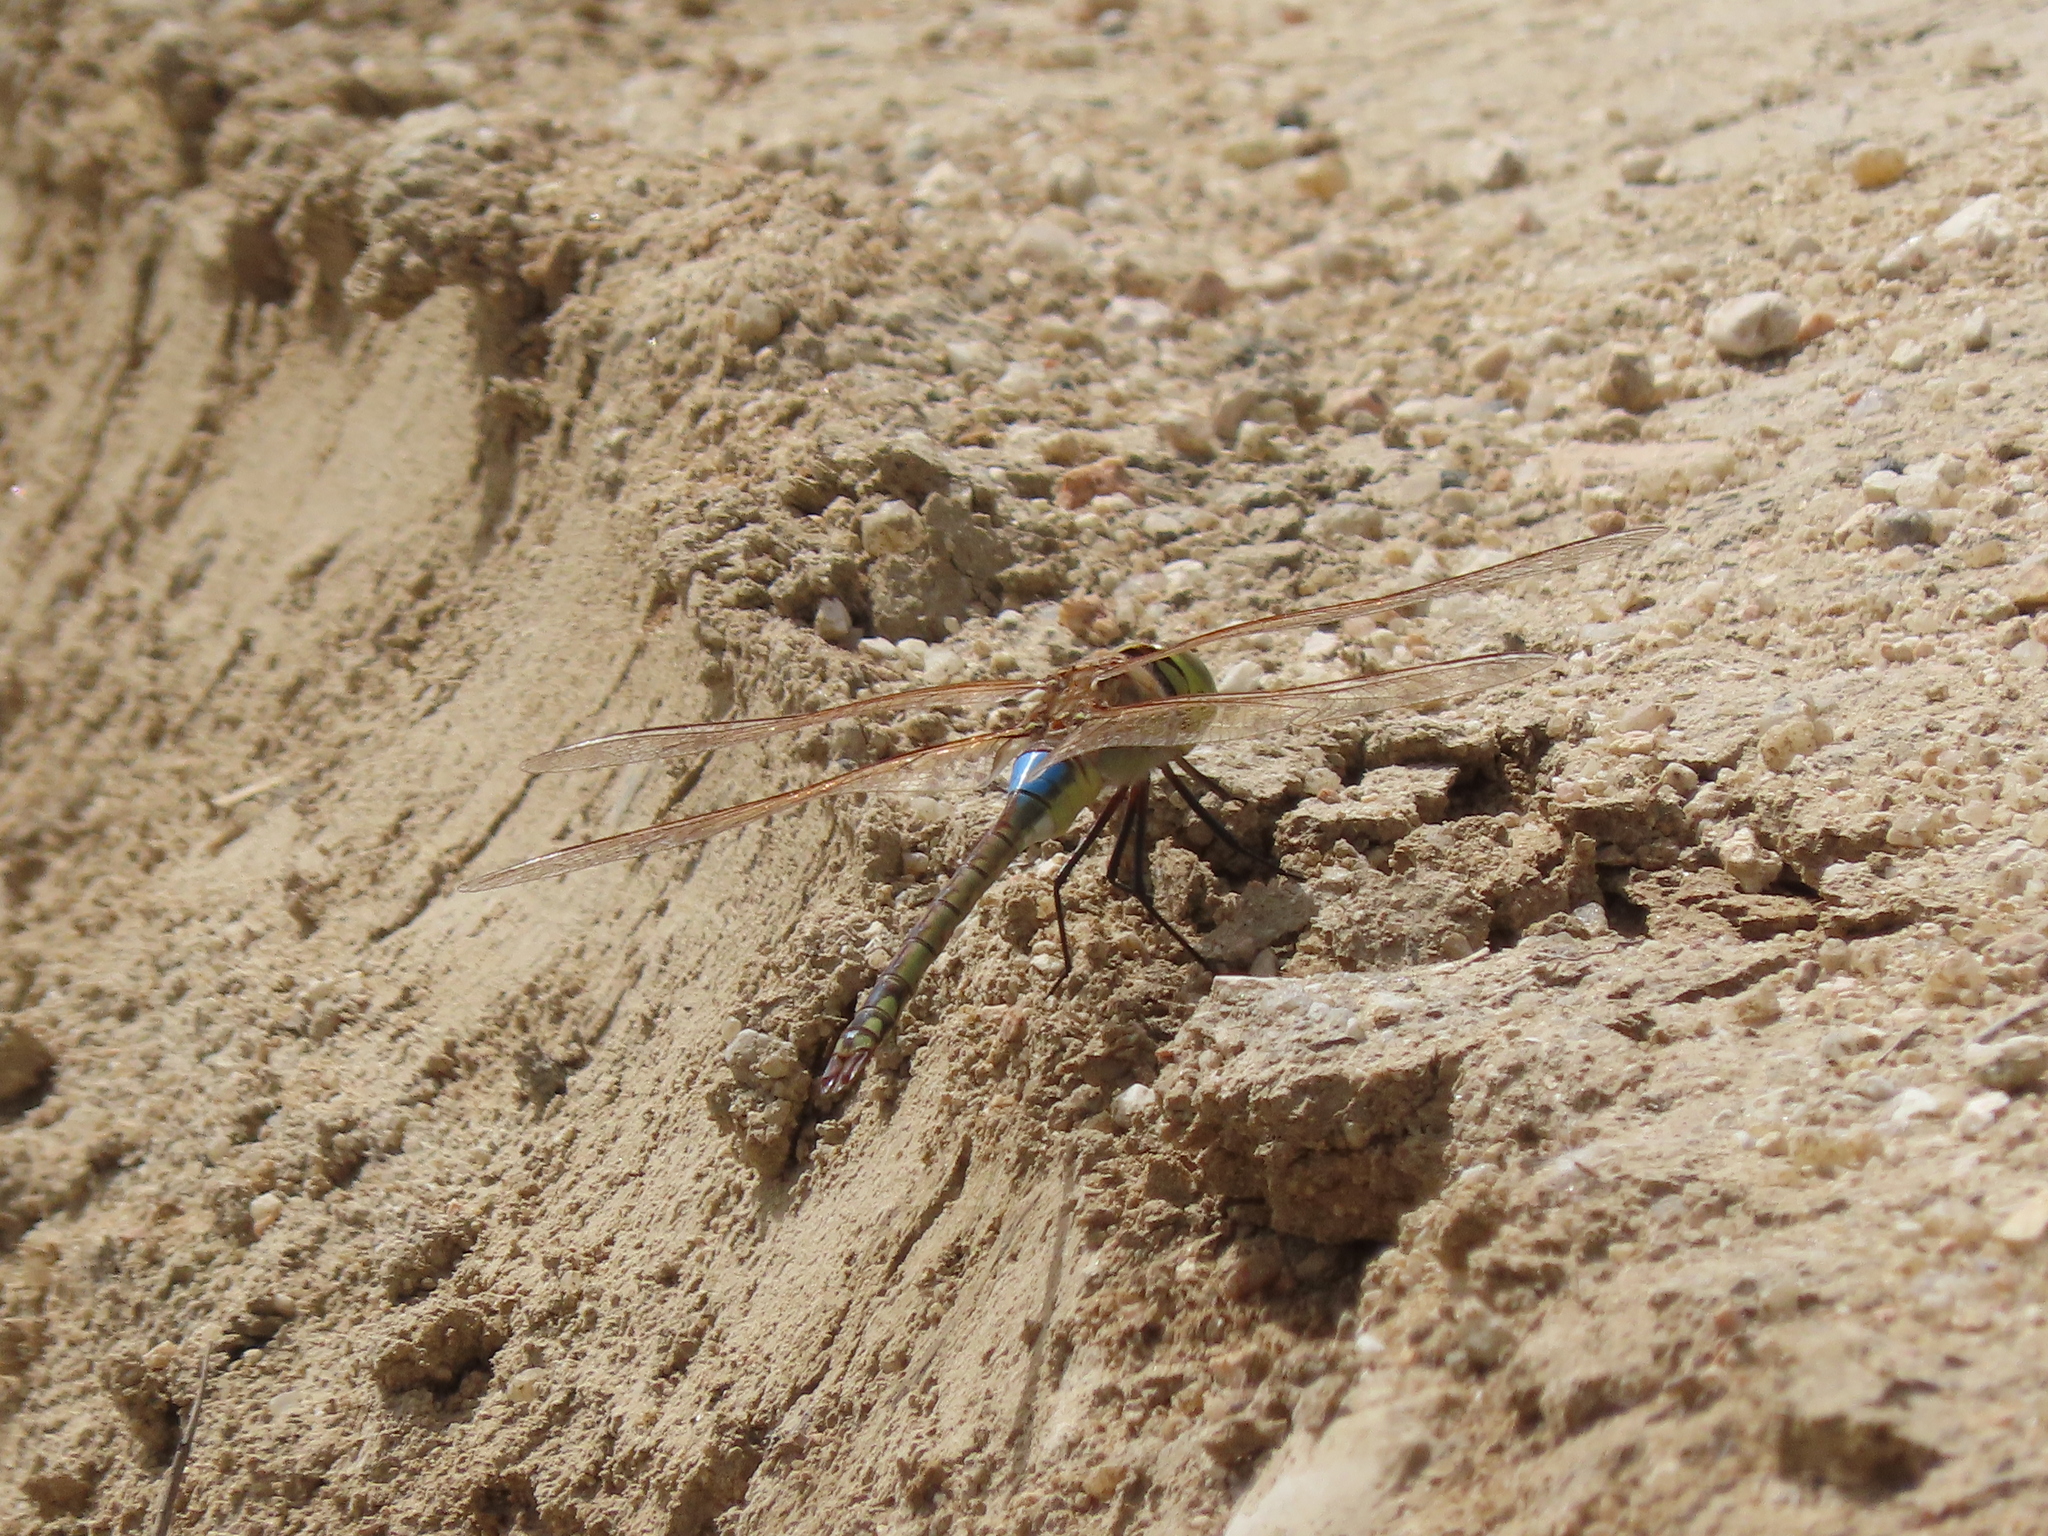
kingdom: Animalia
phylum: Arthropoda
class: Insecta
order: Odonata
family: Aeshnidae
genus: Anax
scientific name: Anax ephippiger
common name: Vagrant emperor
